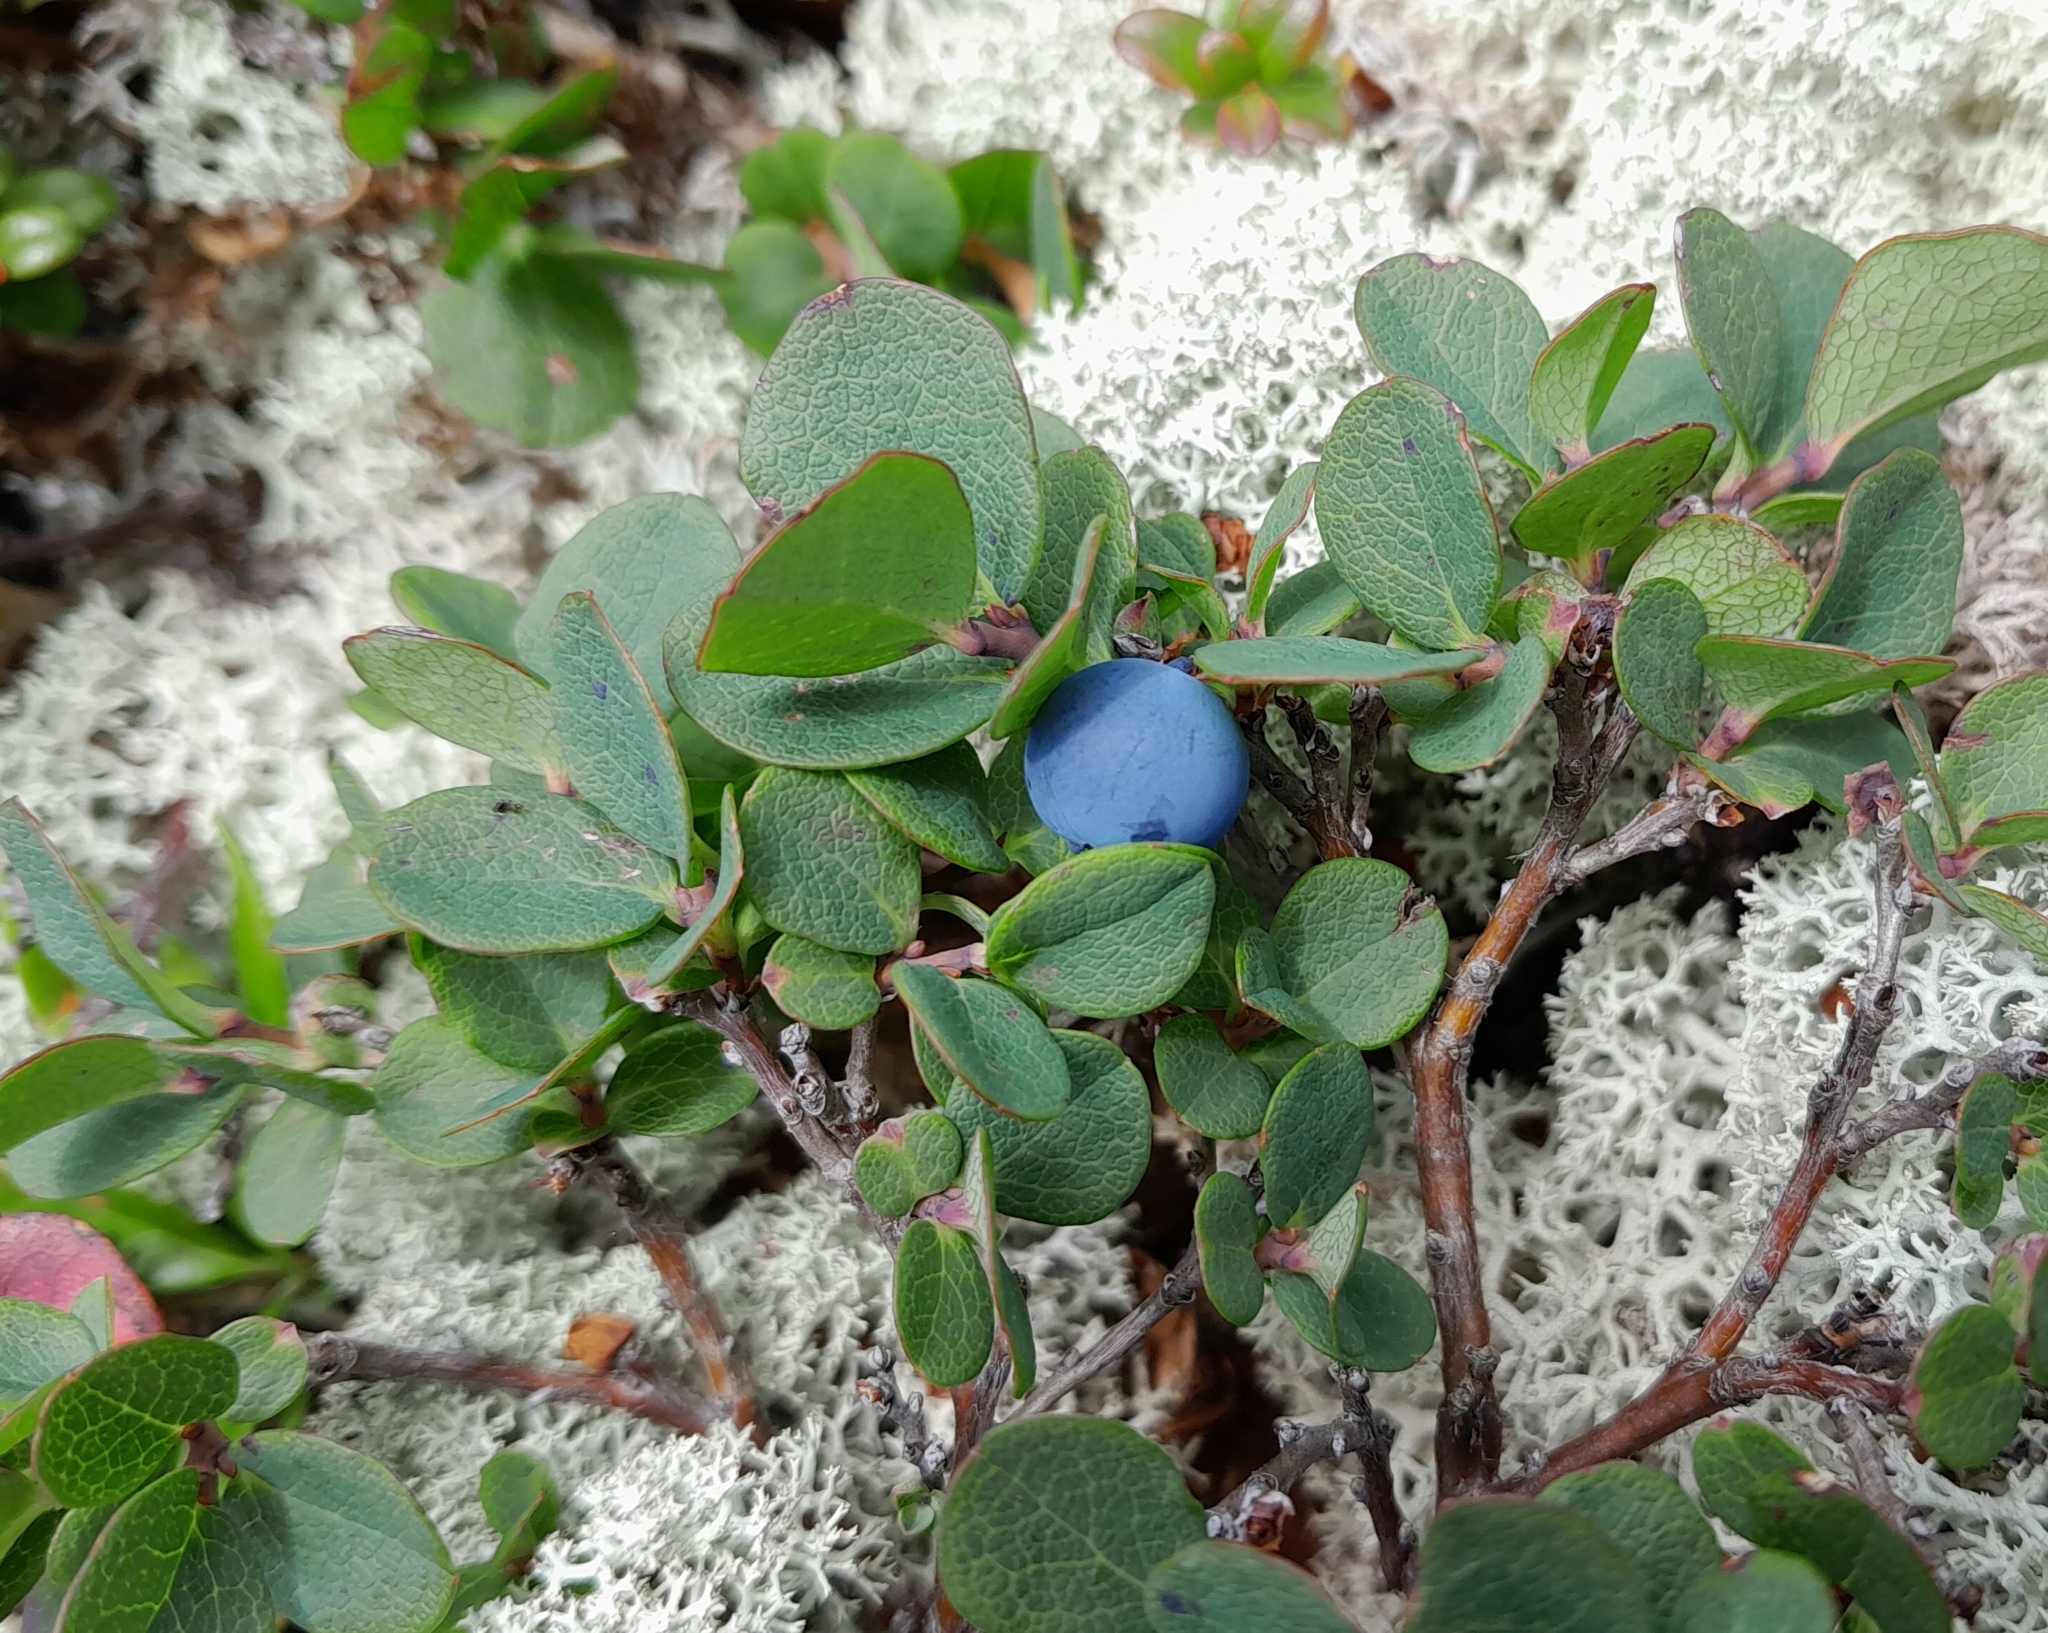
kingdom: Plantae
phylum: Tracheophyta
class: Magnoliopsida
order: Ericales
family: Ericaceae
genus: Vaccinium
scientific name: Vaccinium uliginosum
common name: Bog bilberry
